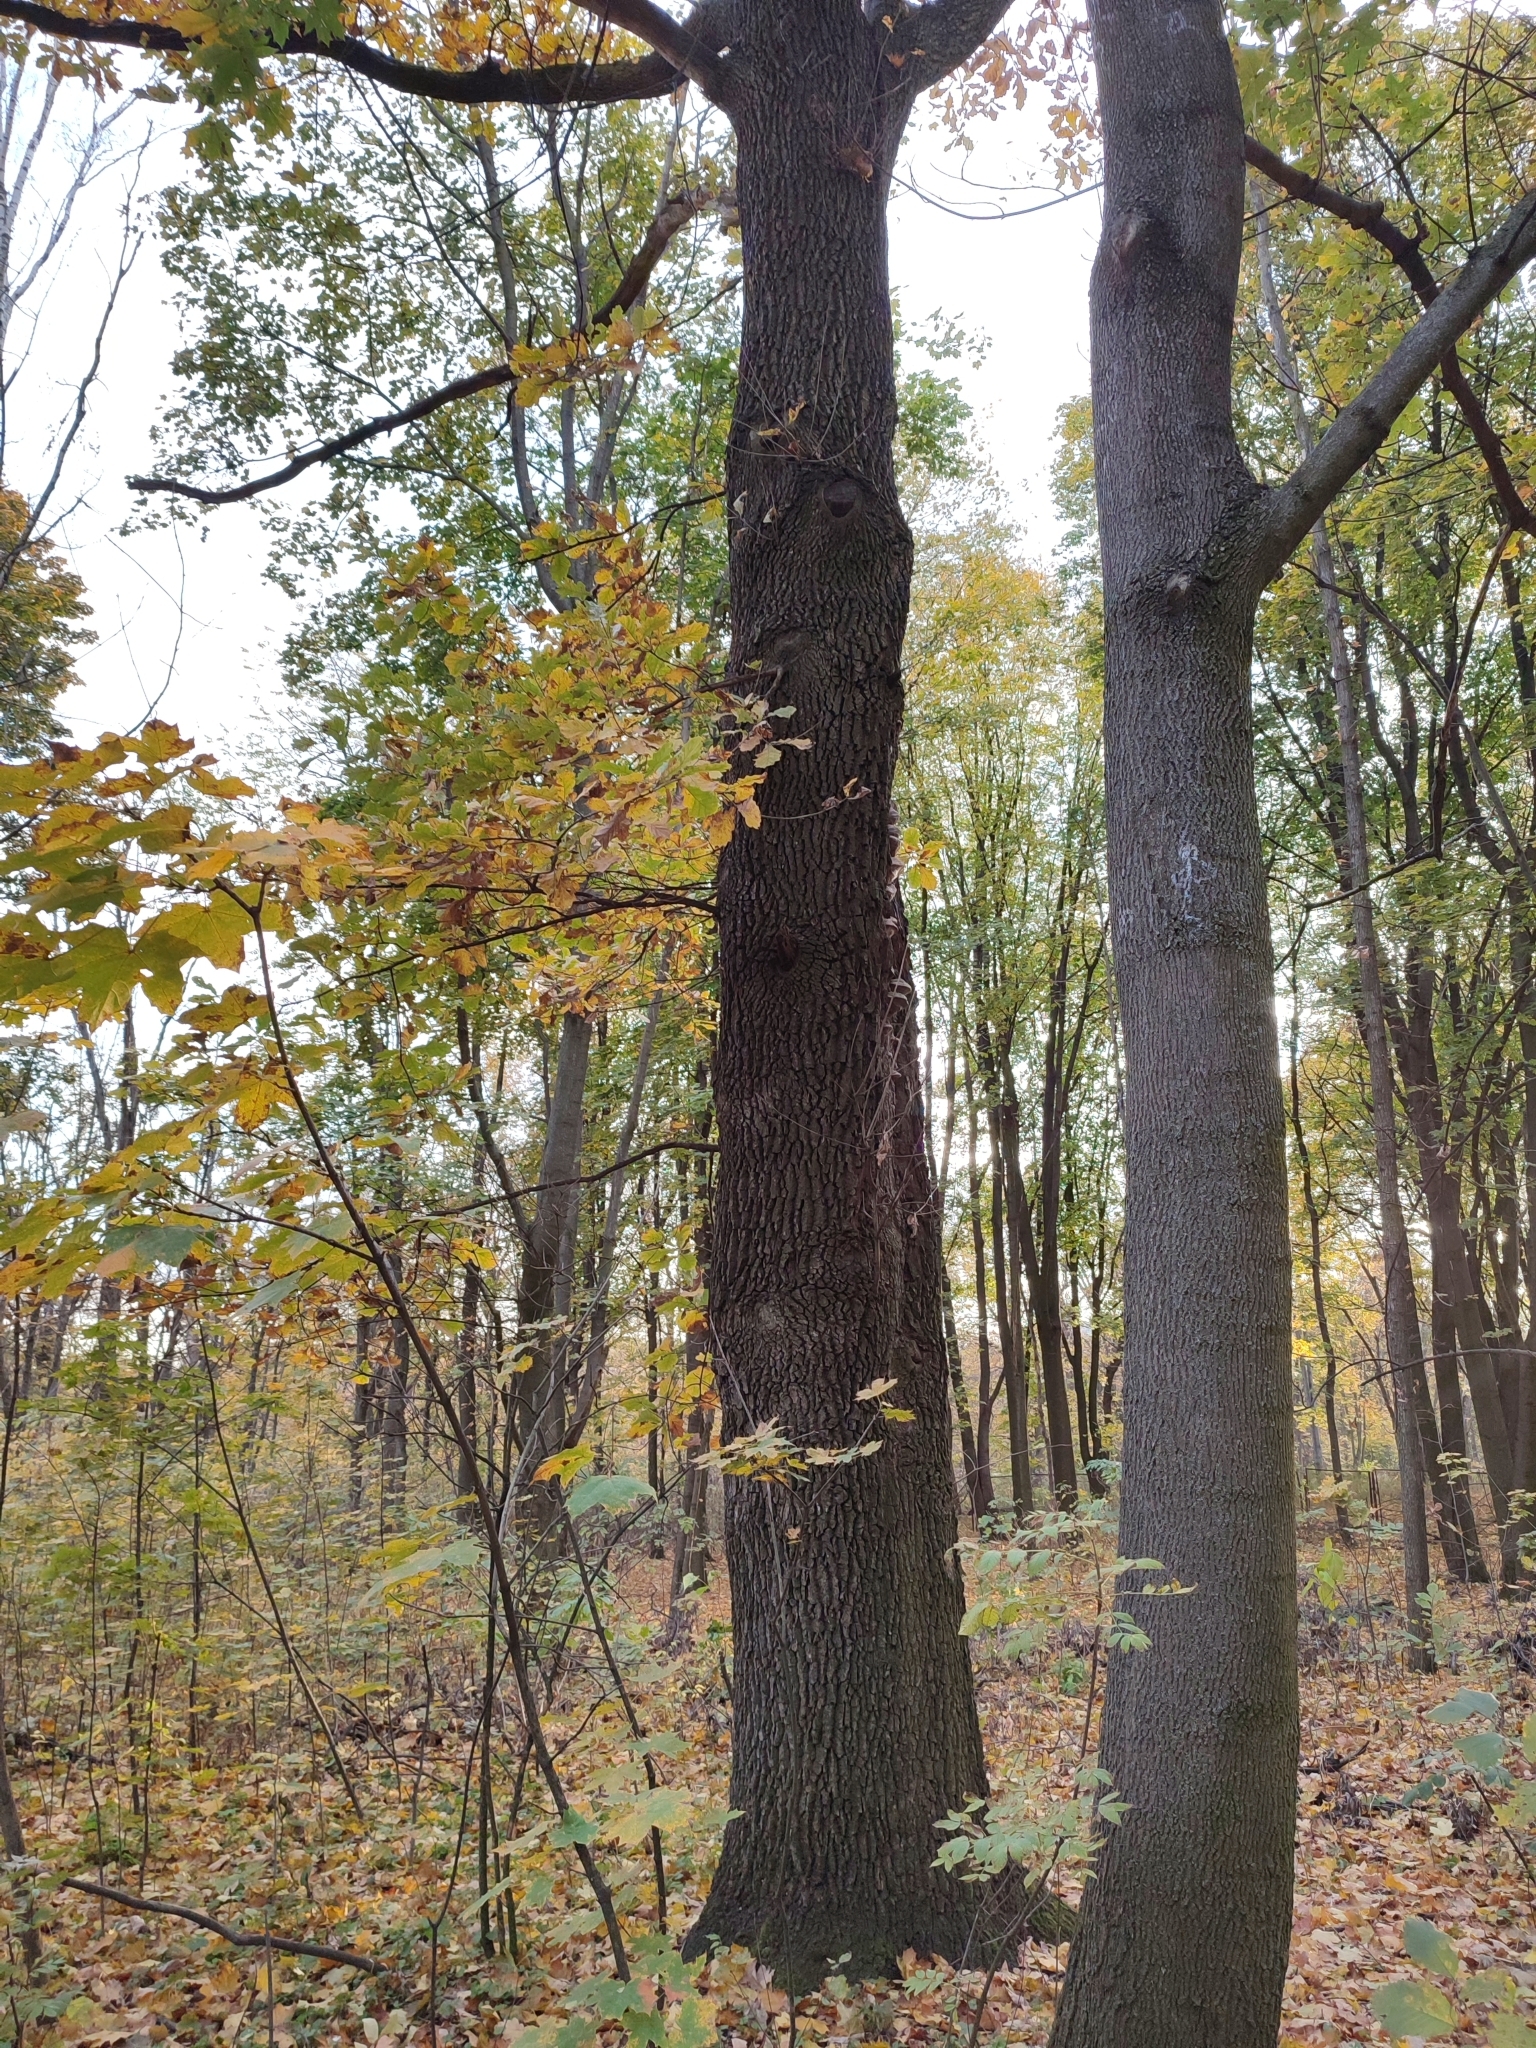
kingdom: Plantae
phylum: Tracheophyta
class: Magnoliopsida
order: Fagales
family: Fagaceae
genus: Quercus
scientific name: Quercus robur
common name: Pedunculate oak
